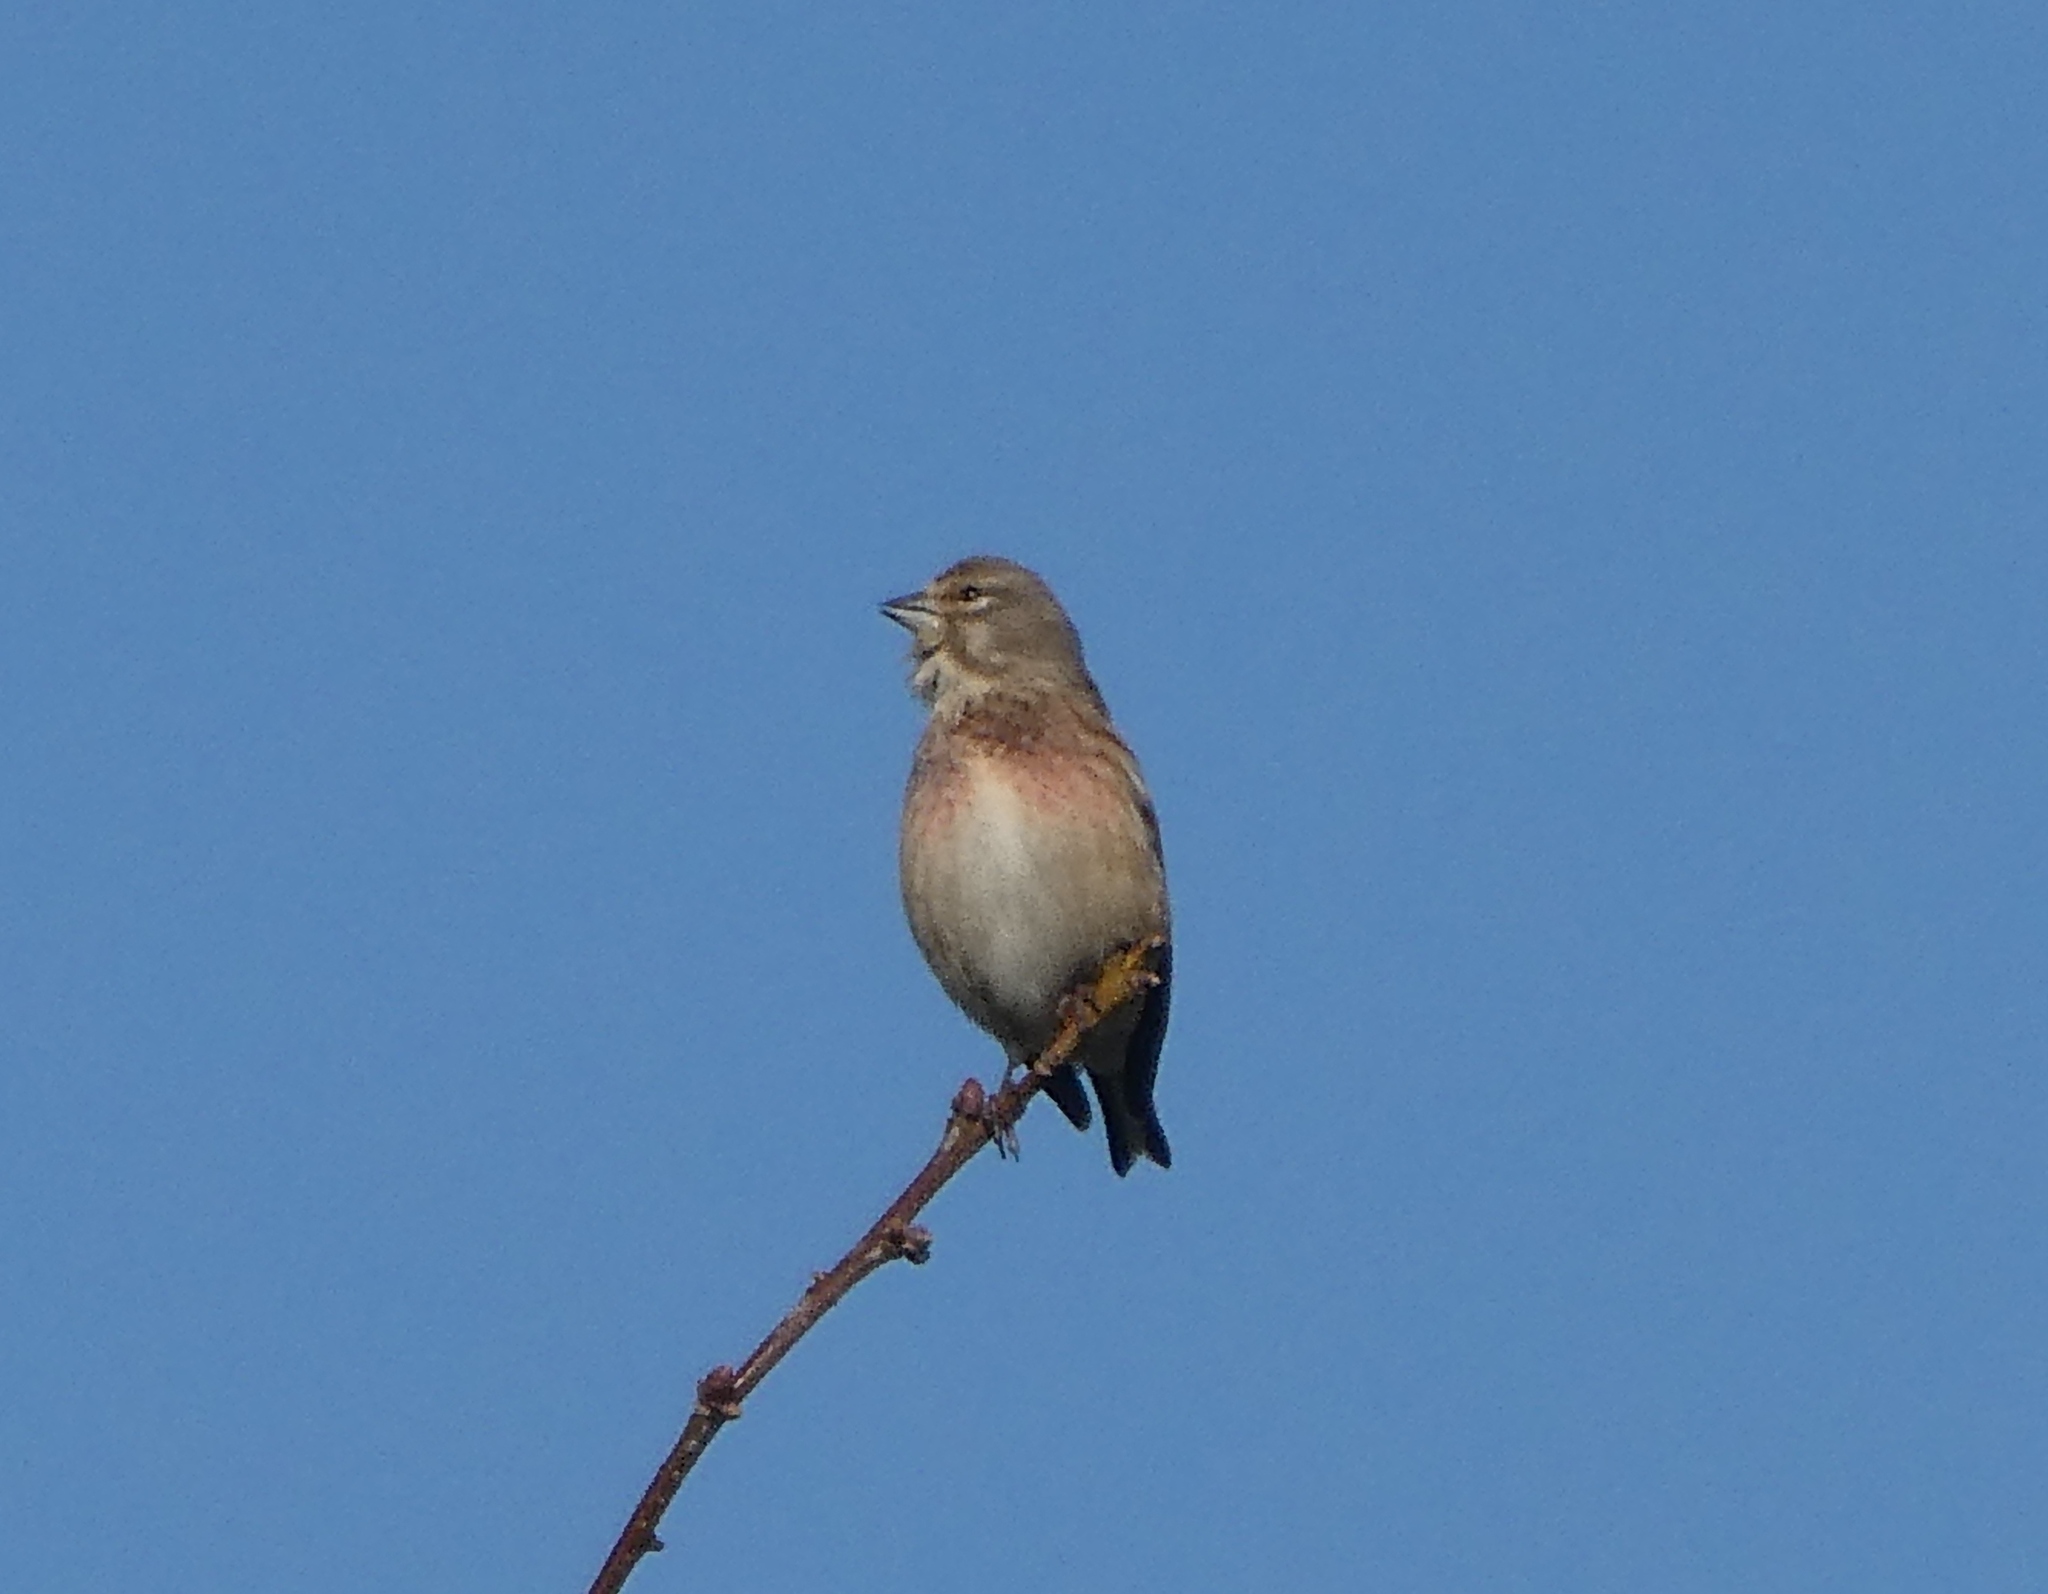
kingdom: Animalia
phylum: Chordata
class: Aves
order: Passeriformes
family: Fringillidae
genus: Linaria
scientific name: Linaria cannabina
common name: Common linnet
